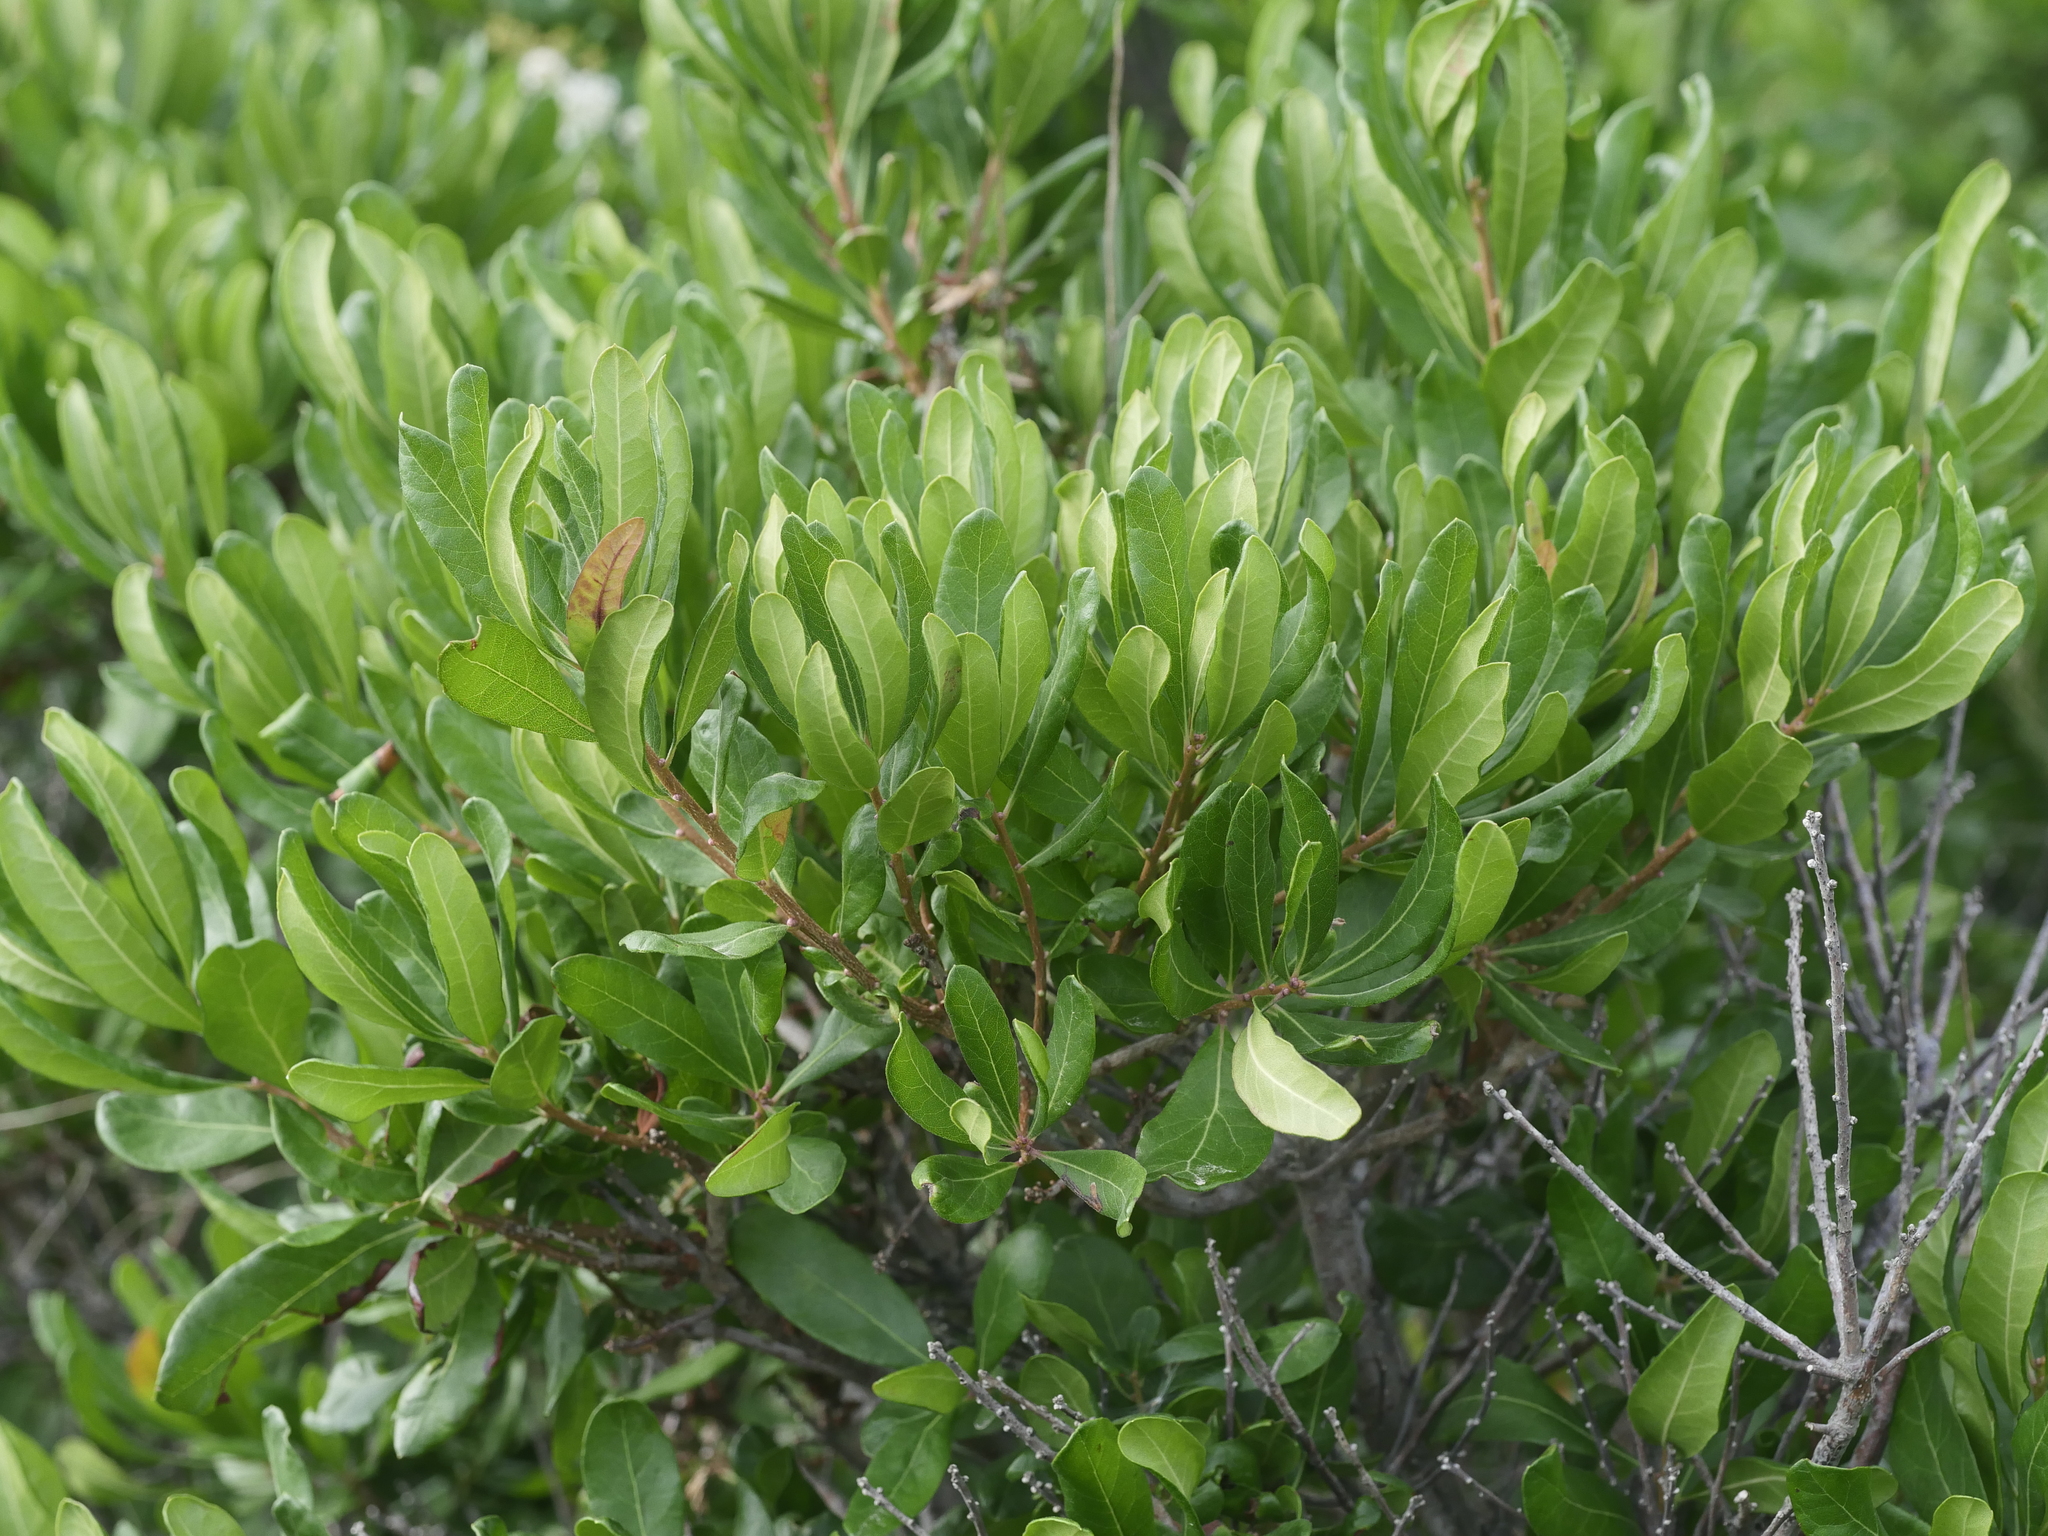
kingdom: Plantae
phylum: Tracheophyta
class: Magnoliopsida
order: Fagales
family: Myricaceae
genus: Morella
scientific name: Morella pensylvanica
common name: Northern bayberry
